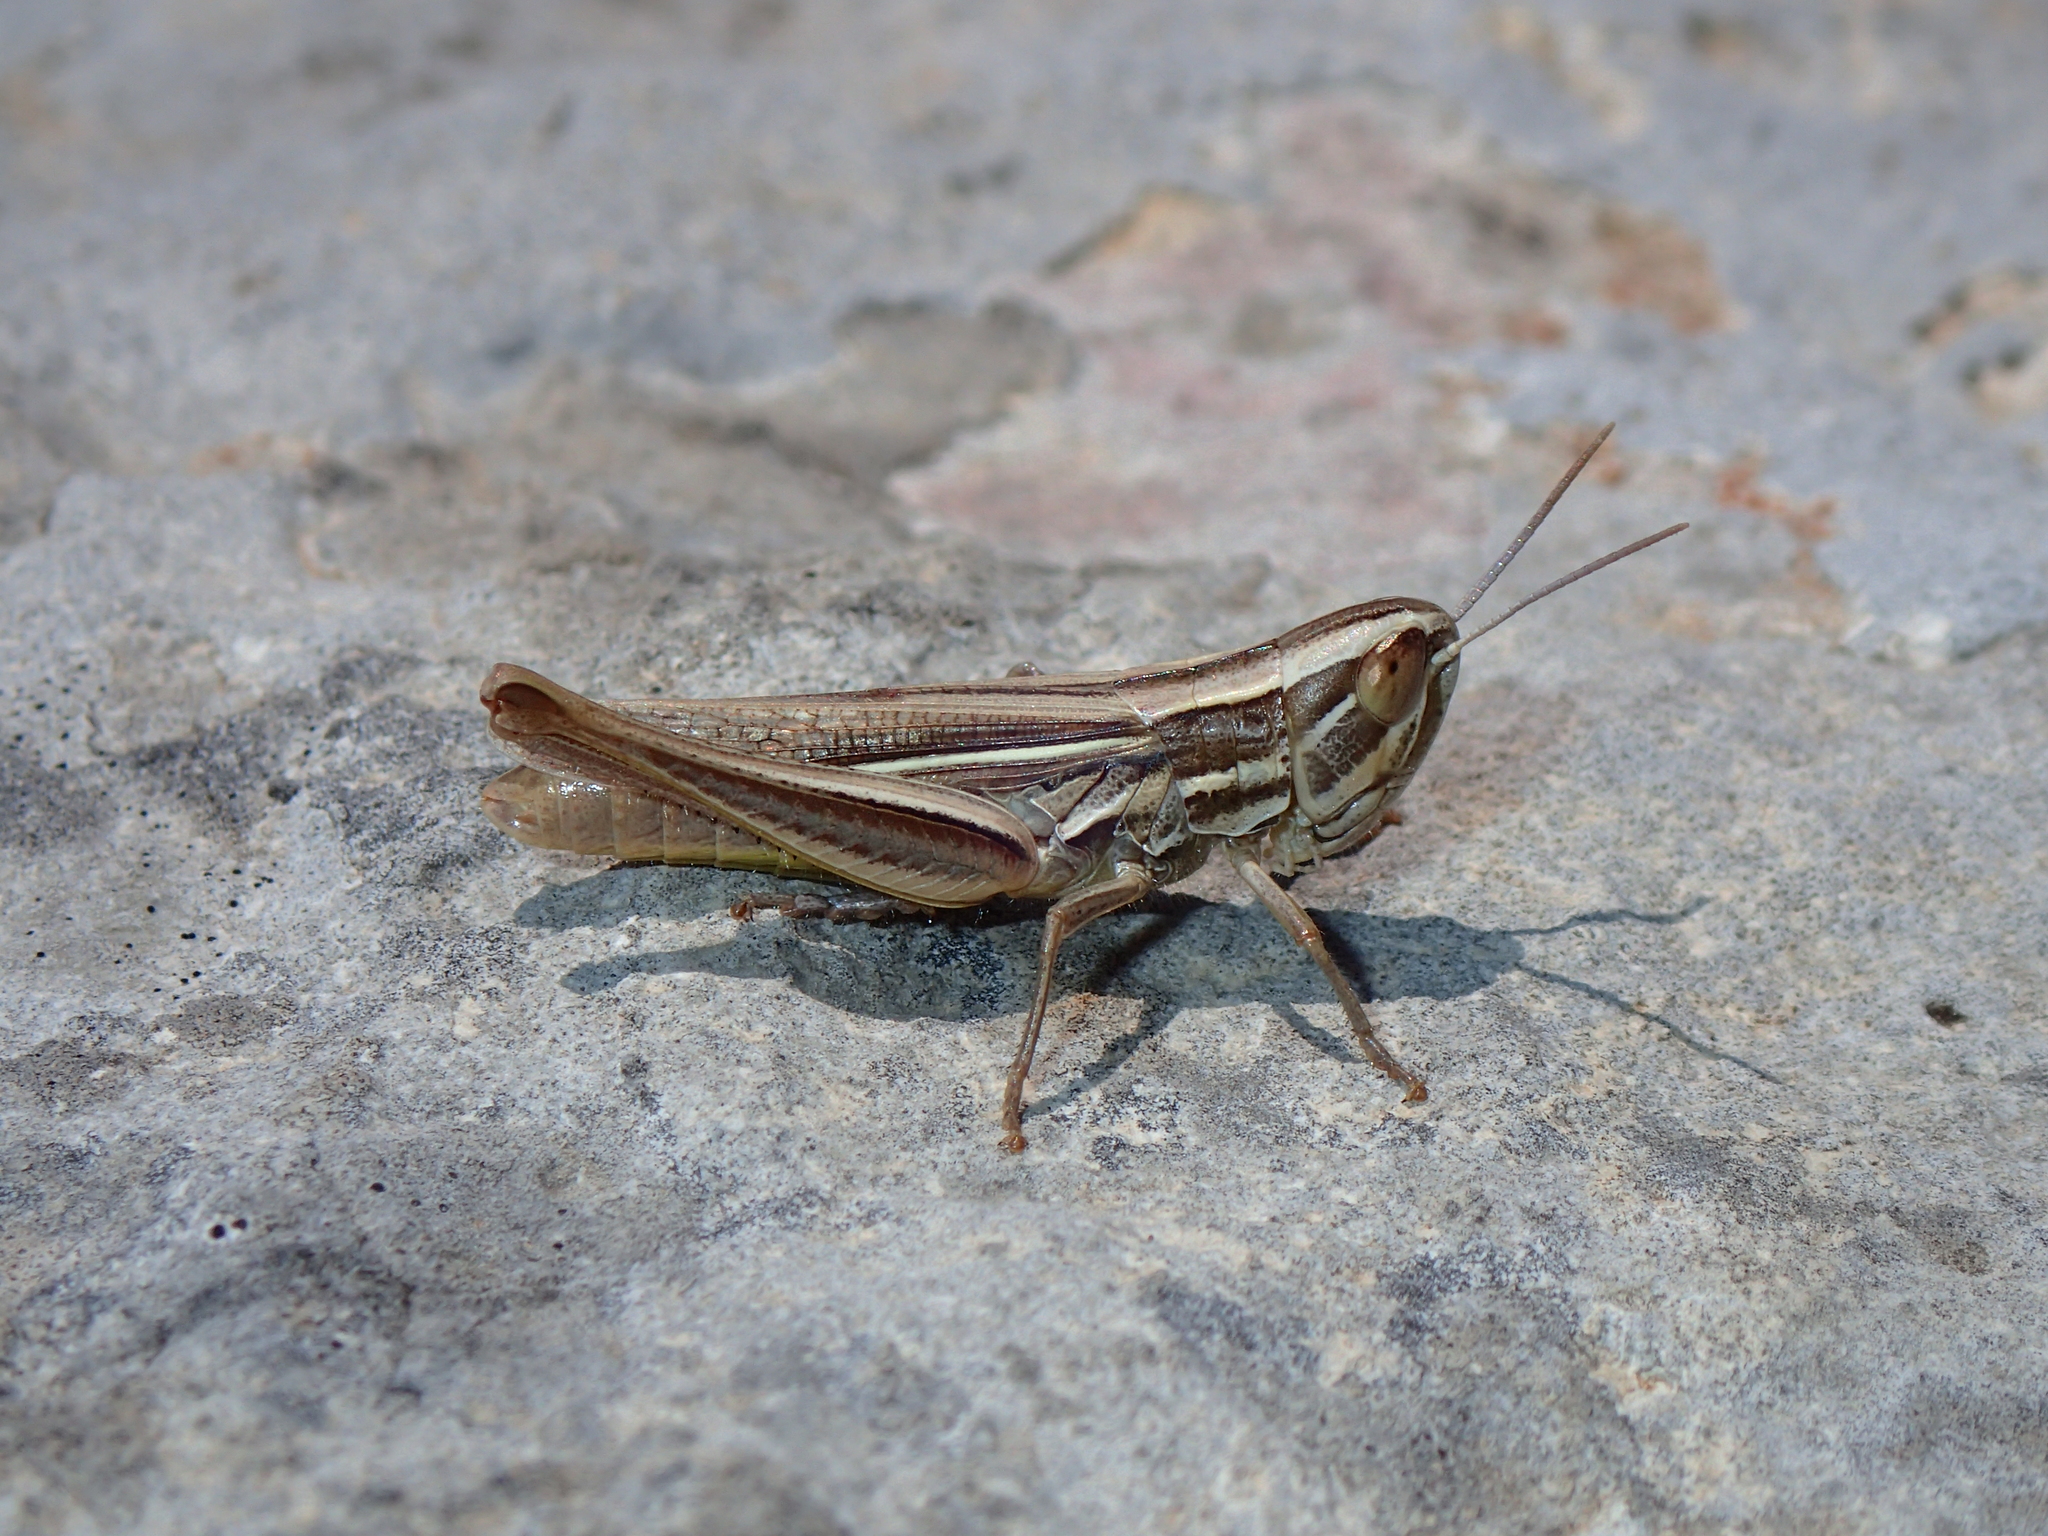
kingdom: Animalia
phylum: Arthropoda
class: Insecta
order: Orthoptera
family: Acrididae
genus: Euchorthippus
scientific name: Euchorthippus chopardi
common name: Iberian straw grasshopper
